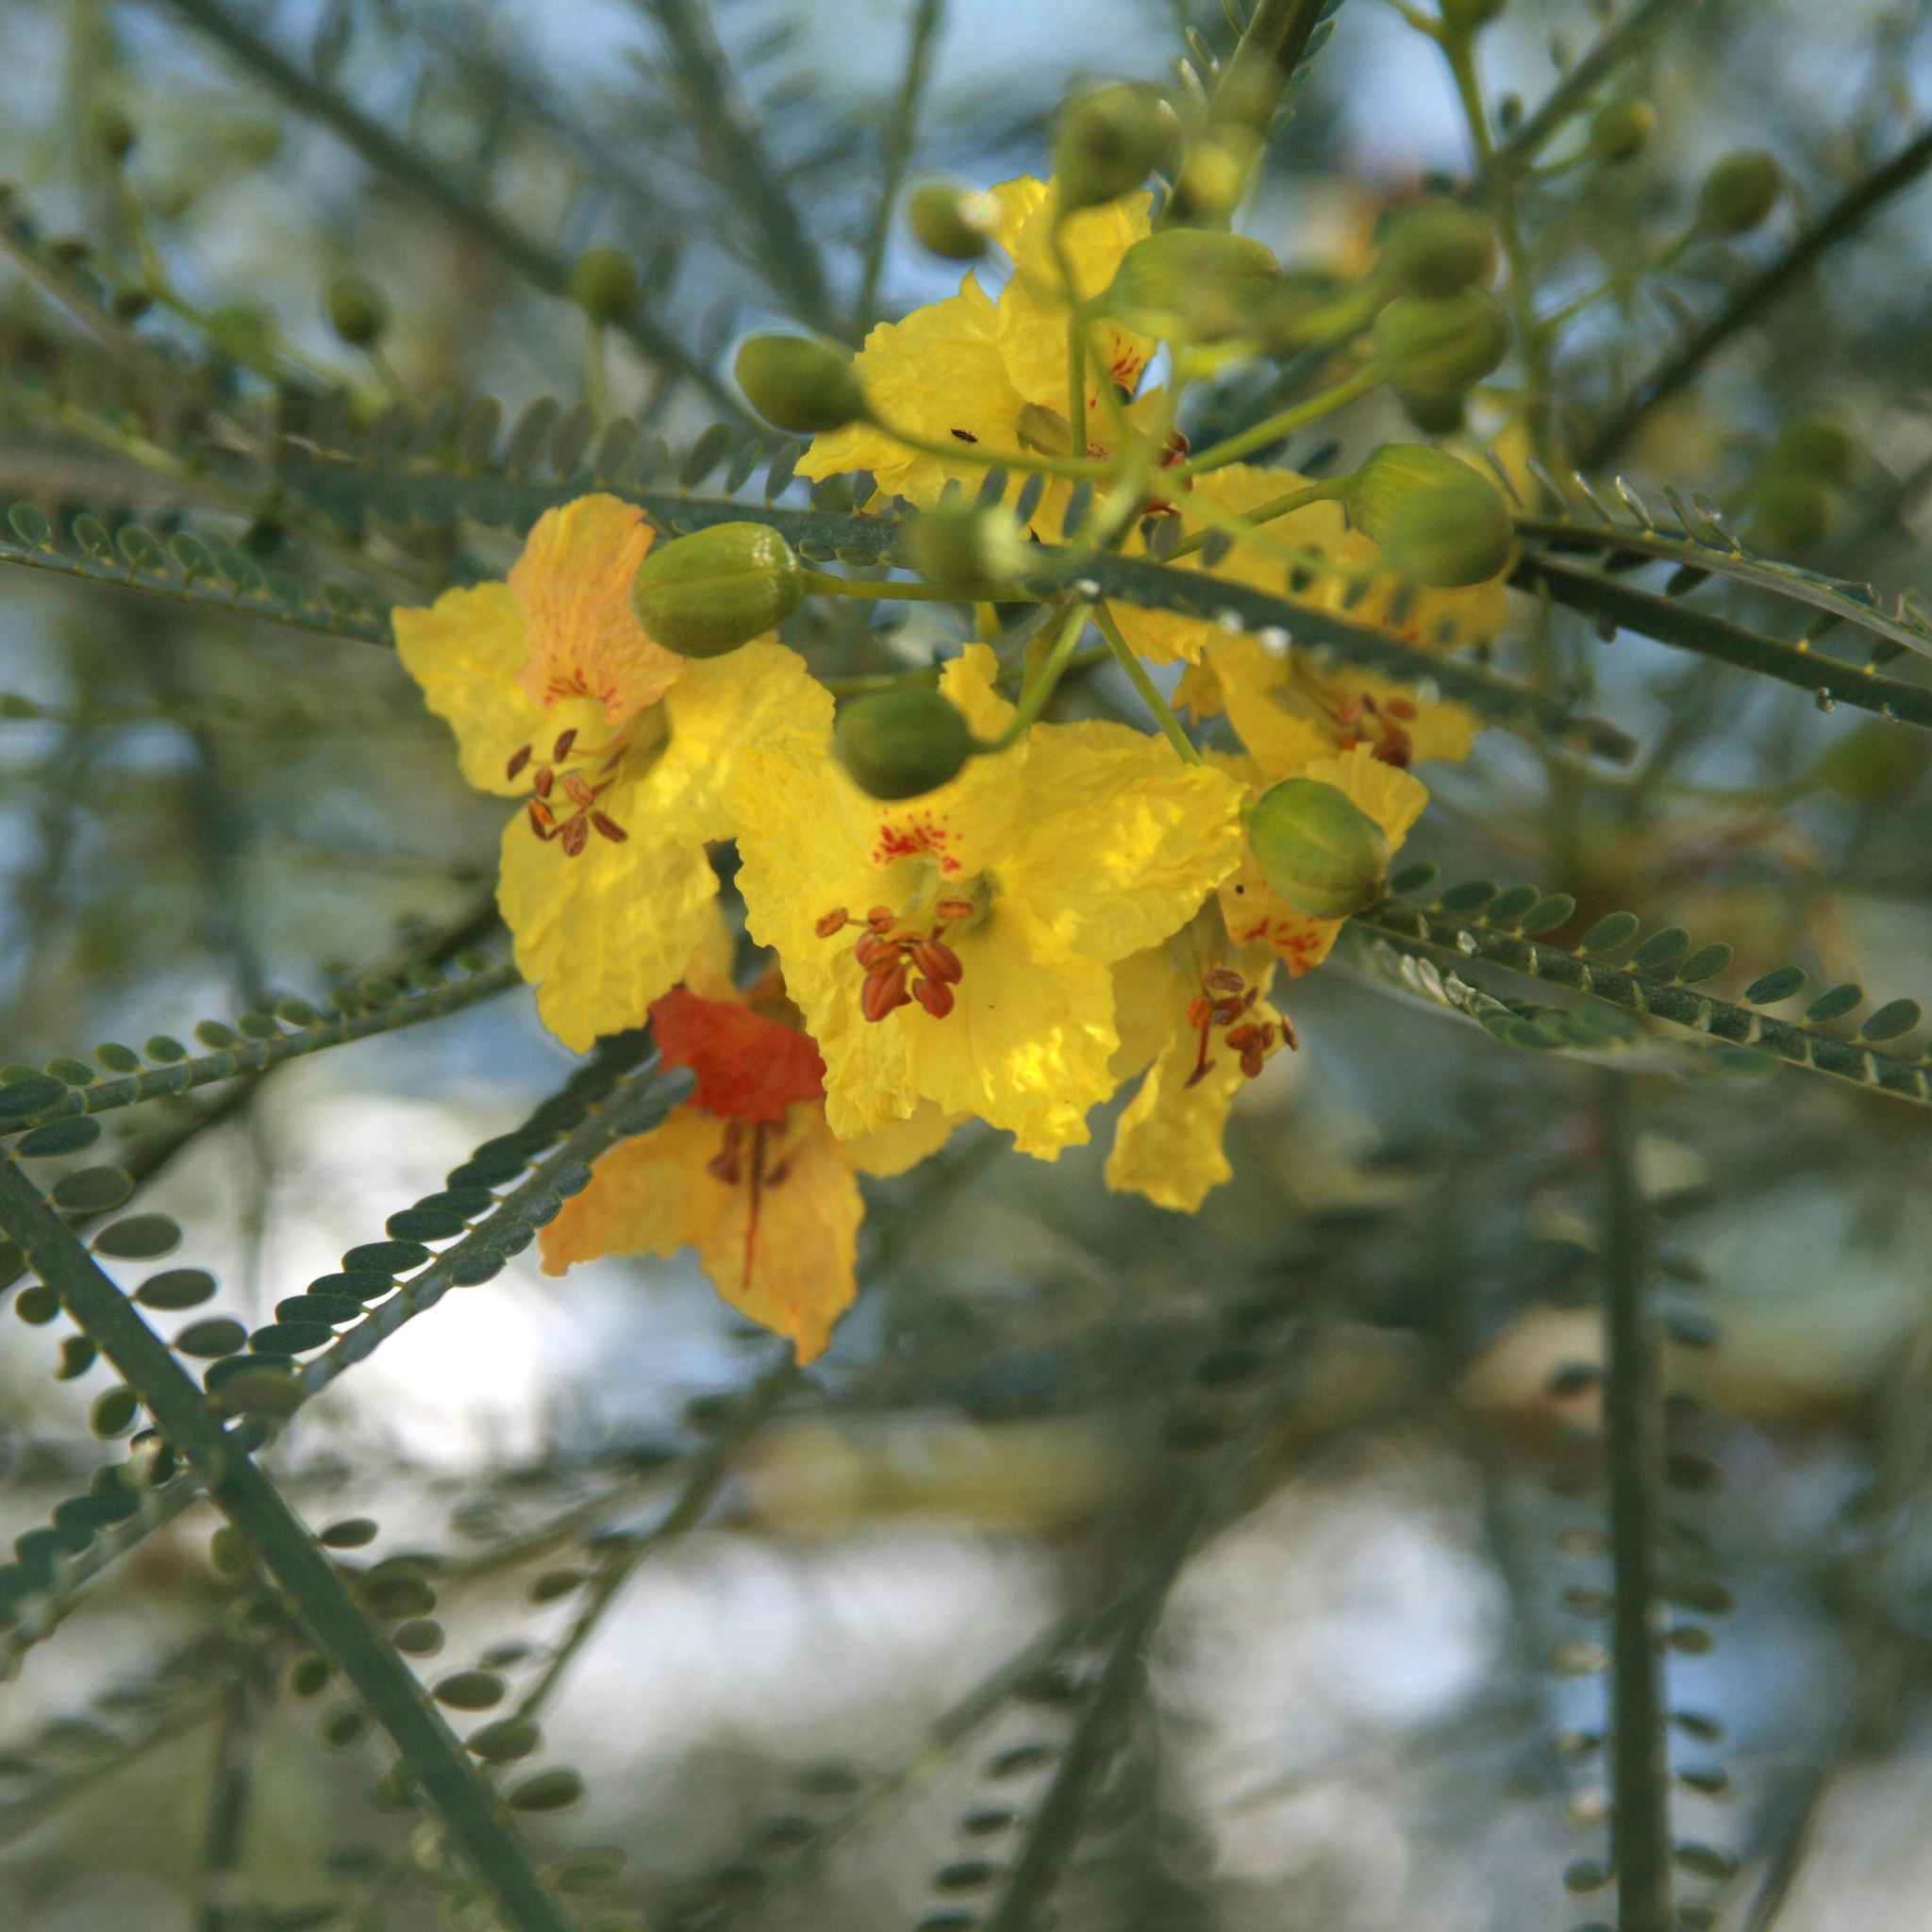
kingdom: Plantae
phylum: Tracheophyta
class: Magnoliopsida
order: Fabales
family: Fabaceae
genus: Parkinsonia
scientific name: Parkinsonia aculeata
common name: Jerusalem thorn
